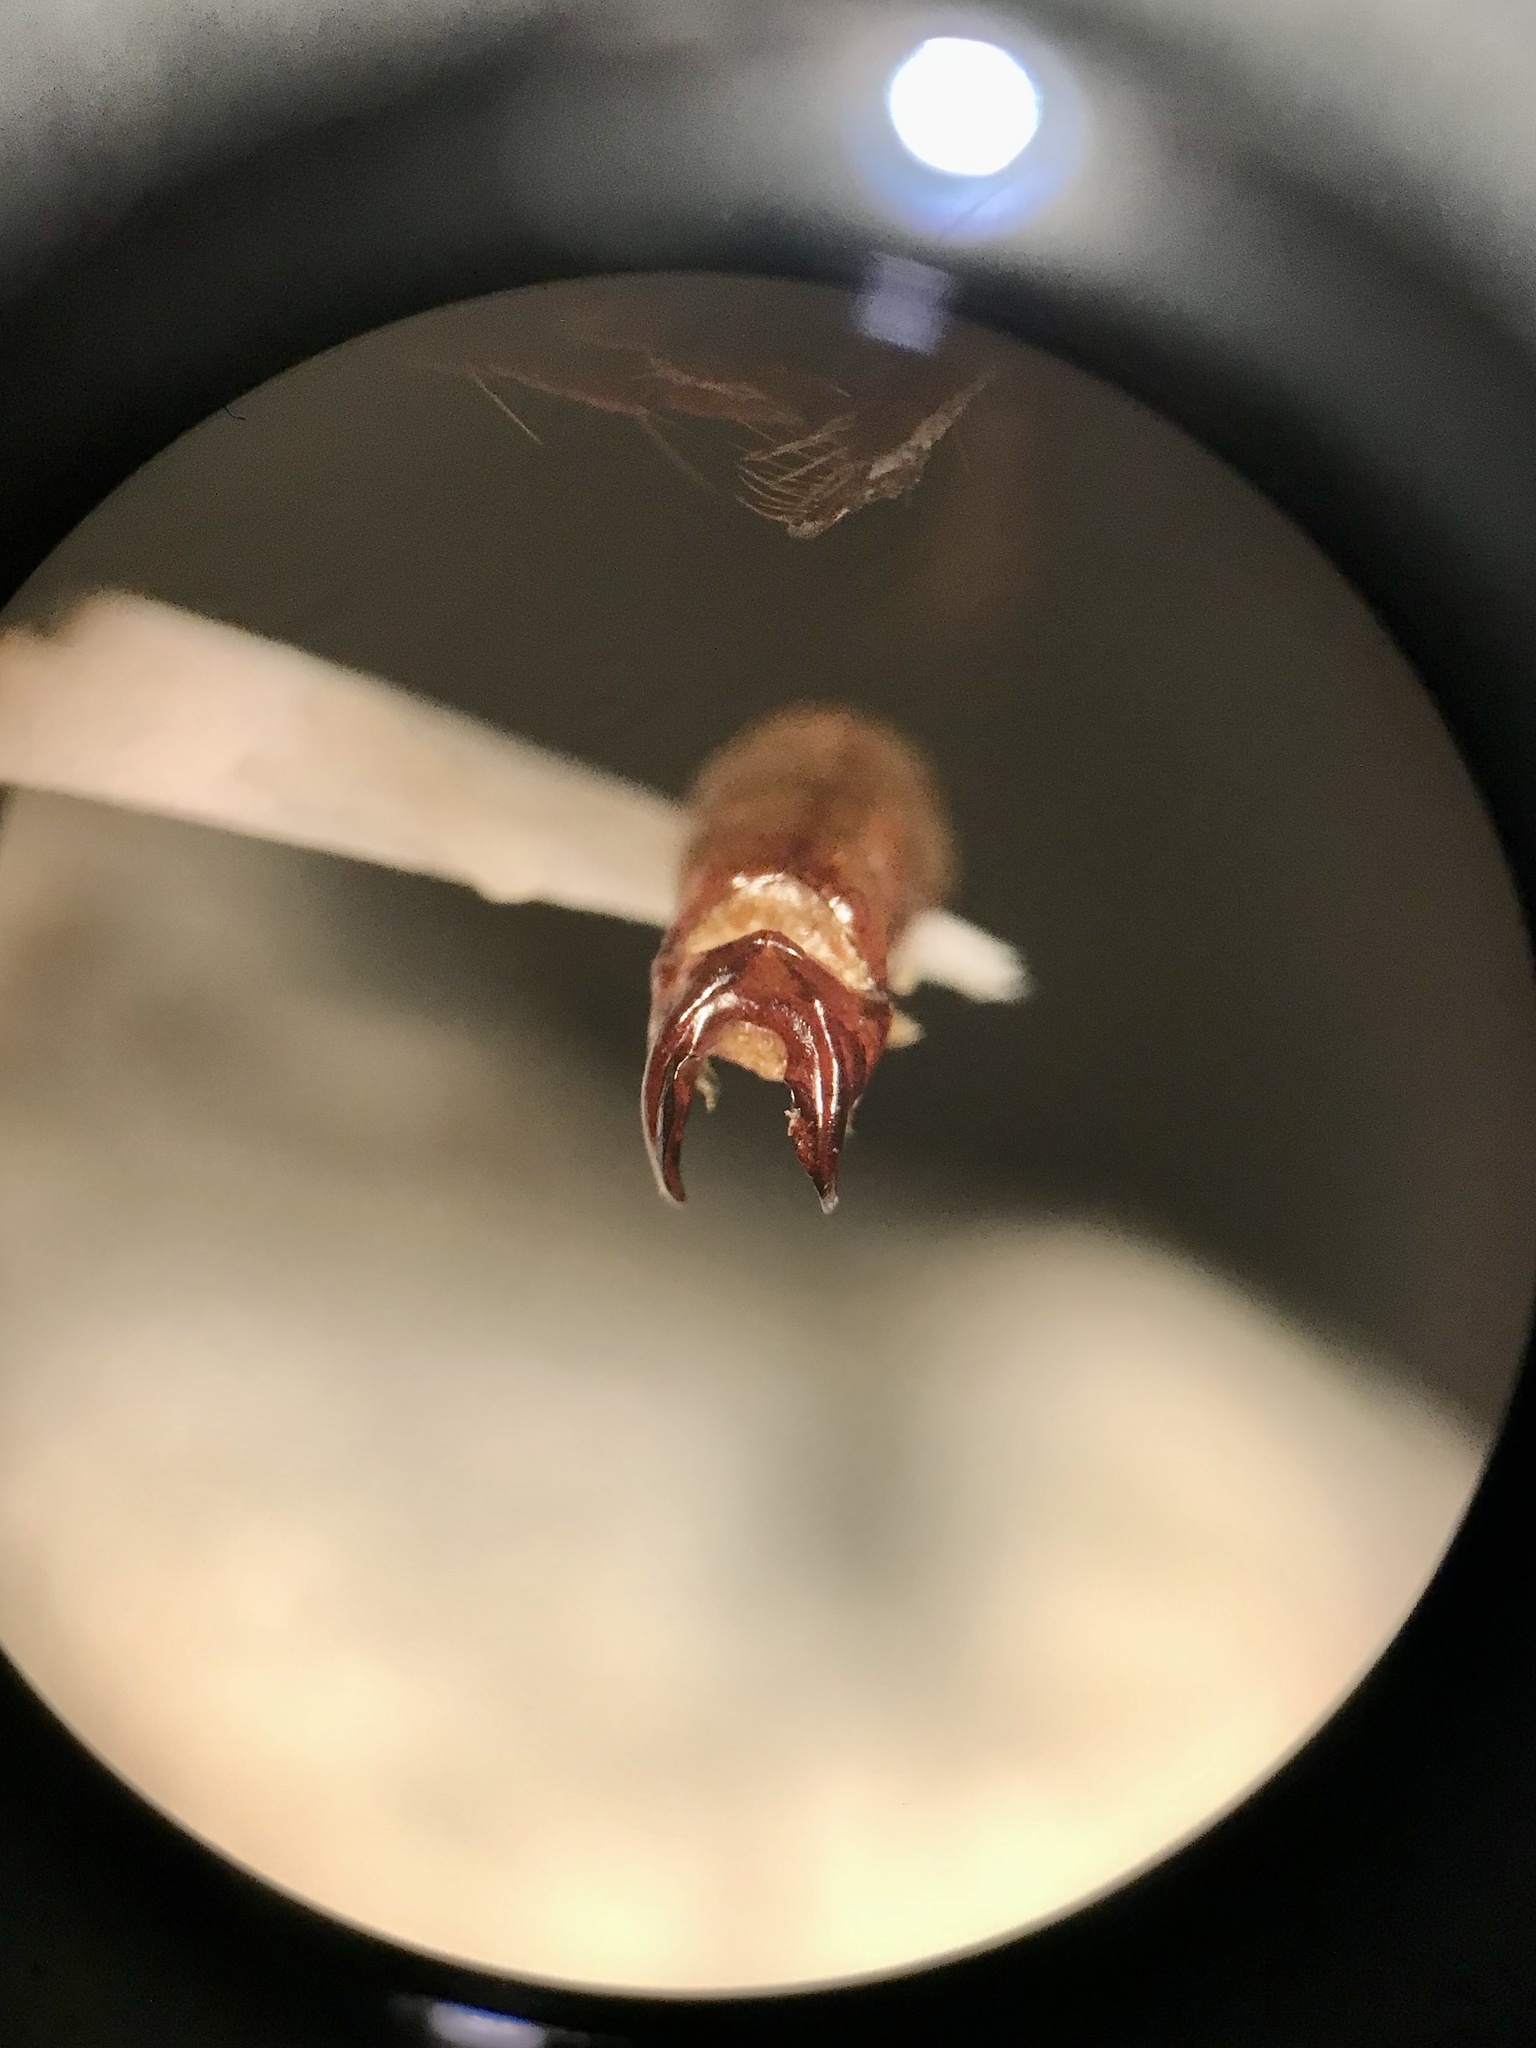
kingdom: Animalia
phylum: Arthropoda
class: Insecta
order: Coleoptera
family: Scarabaeidae
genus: Phyllophaga
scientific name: Phyllophaga implicita
